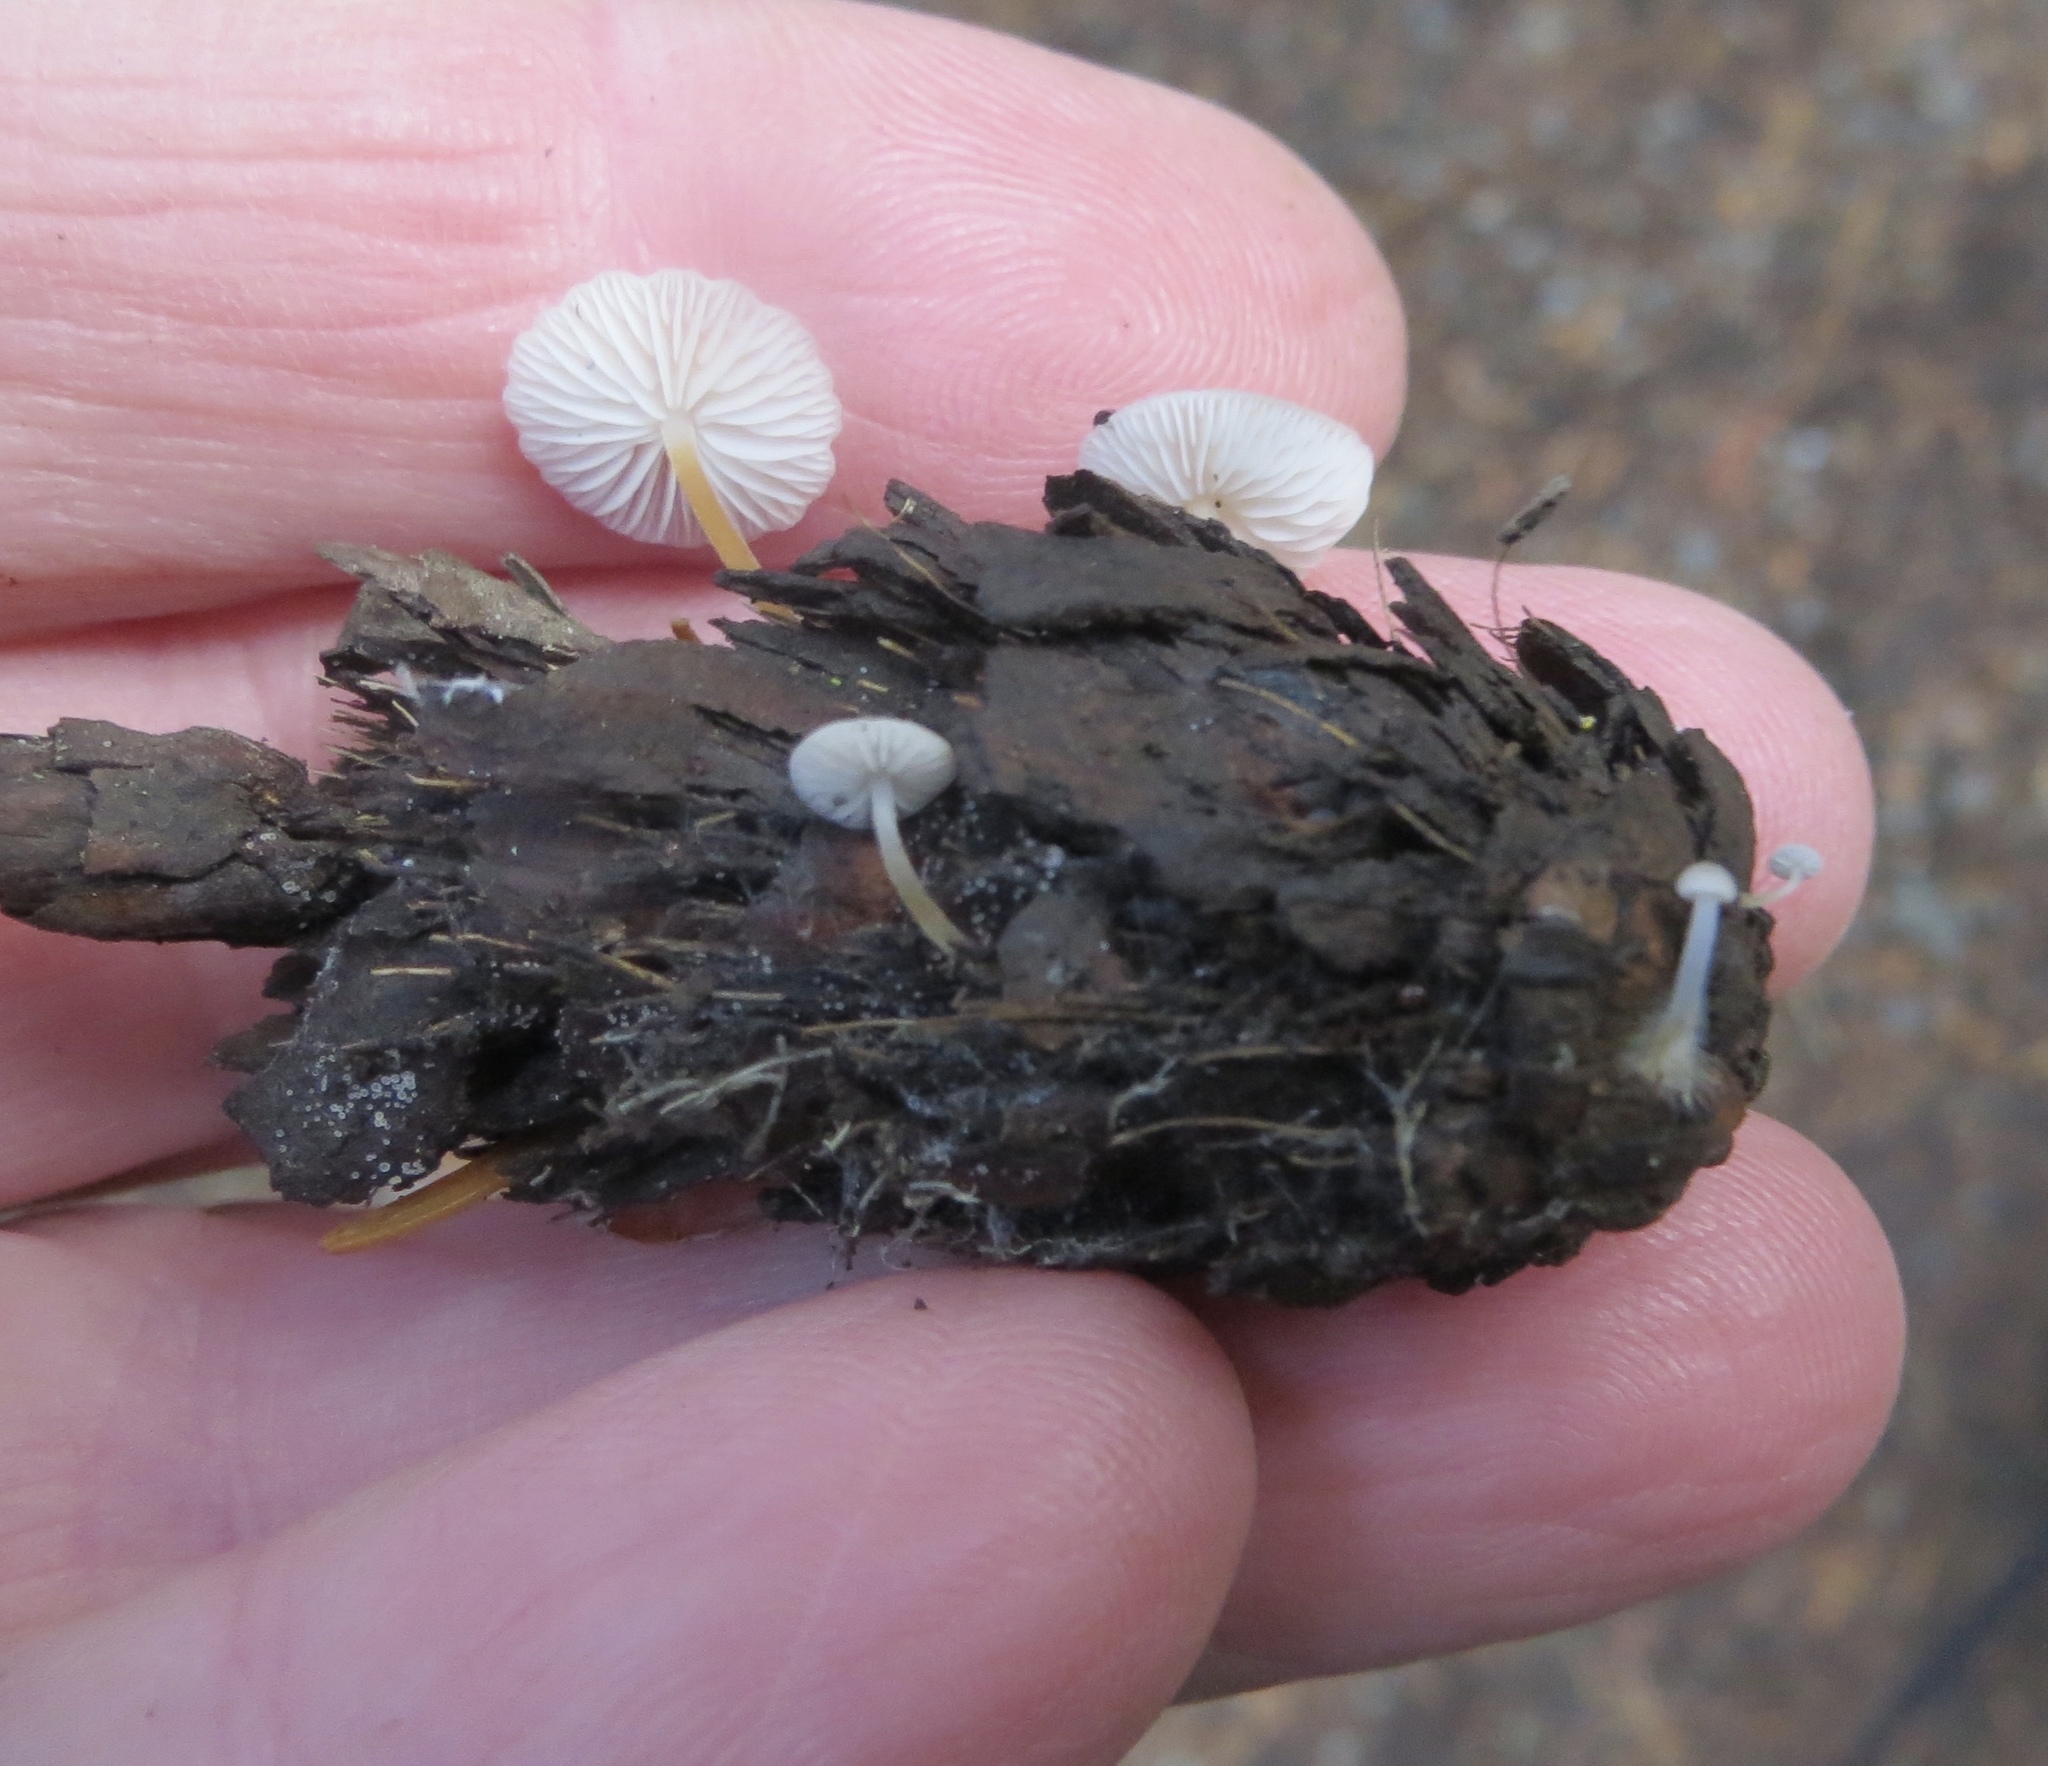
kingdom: Fungi
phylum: Basidiomycota
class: Agaricomycetes
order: Agaricales
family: Physalacriaceae
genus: Strobilurus
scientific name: Strobilurus trullisatus
